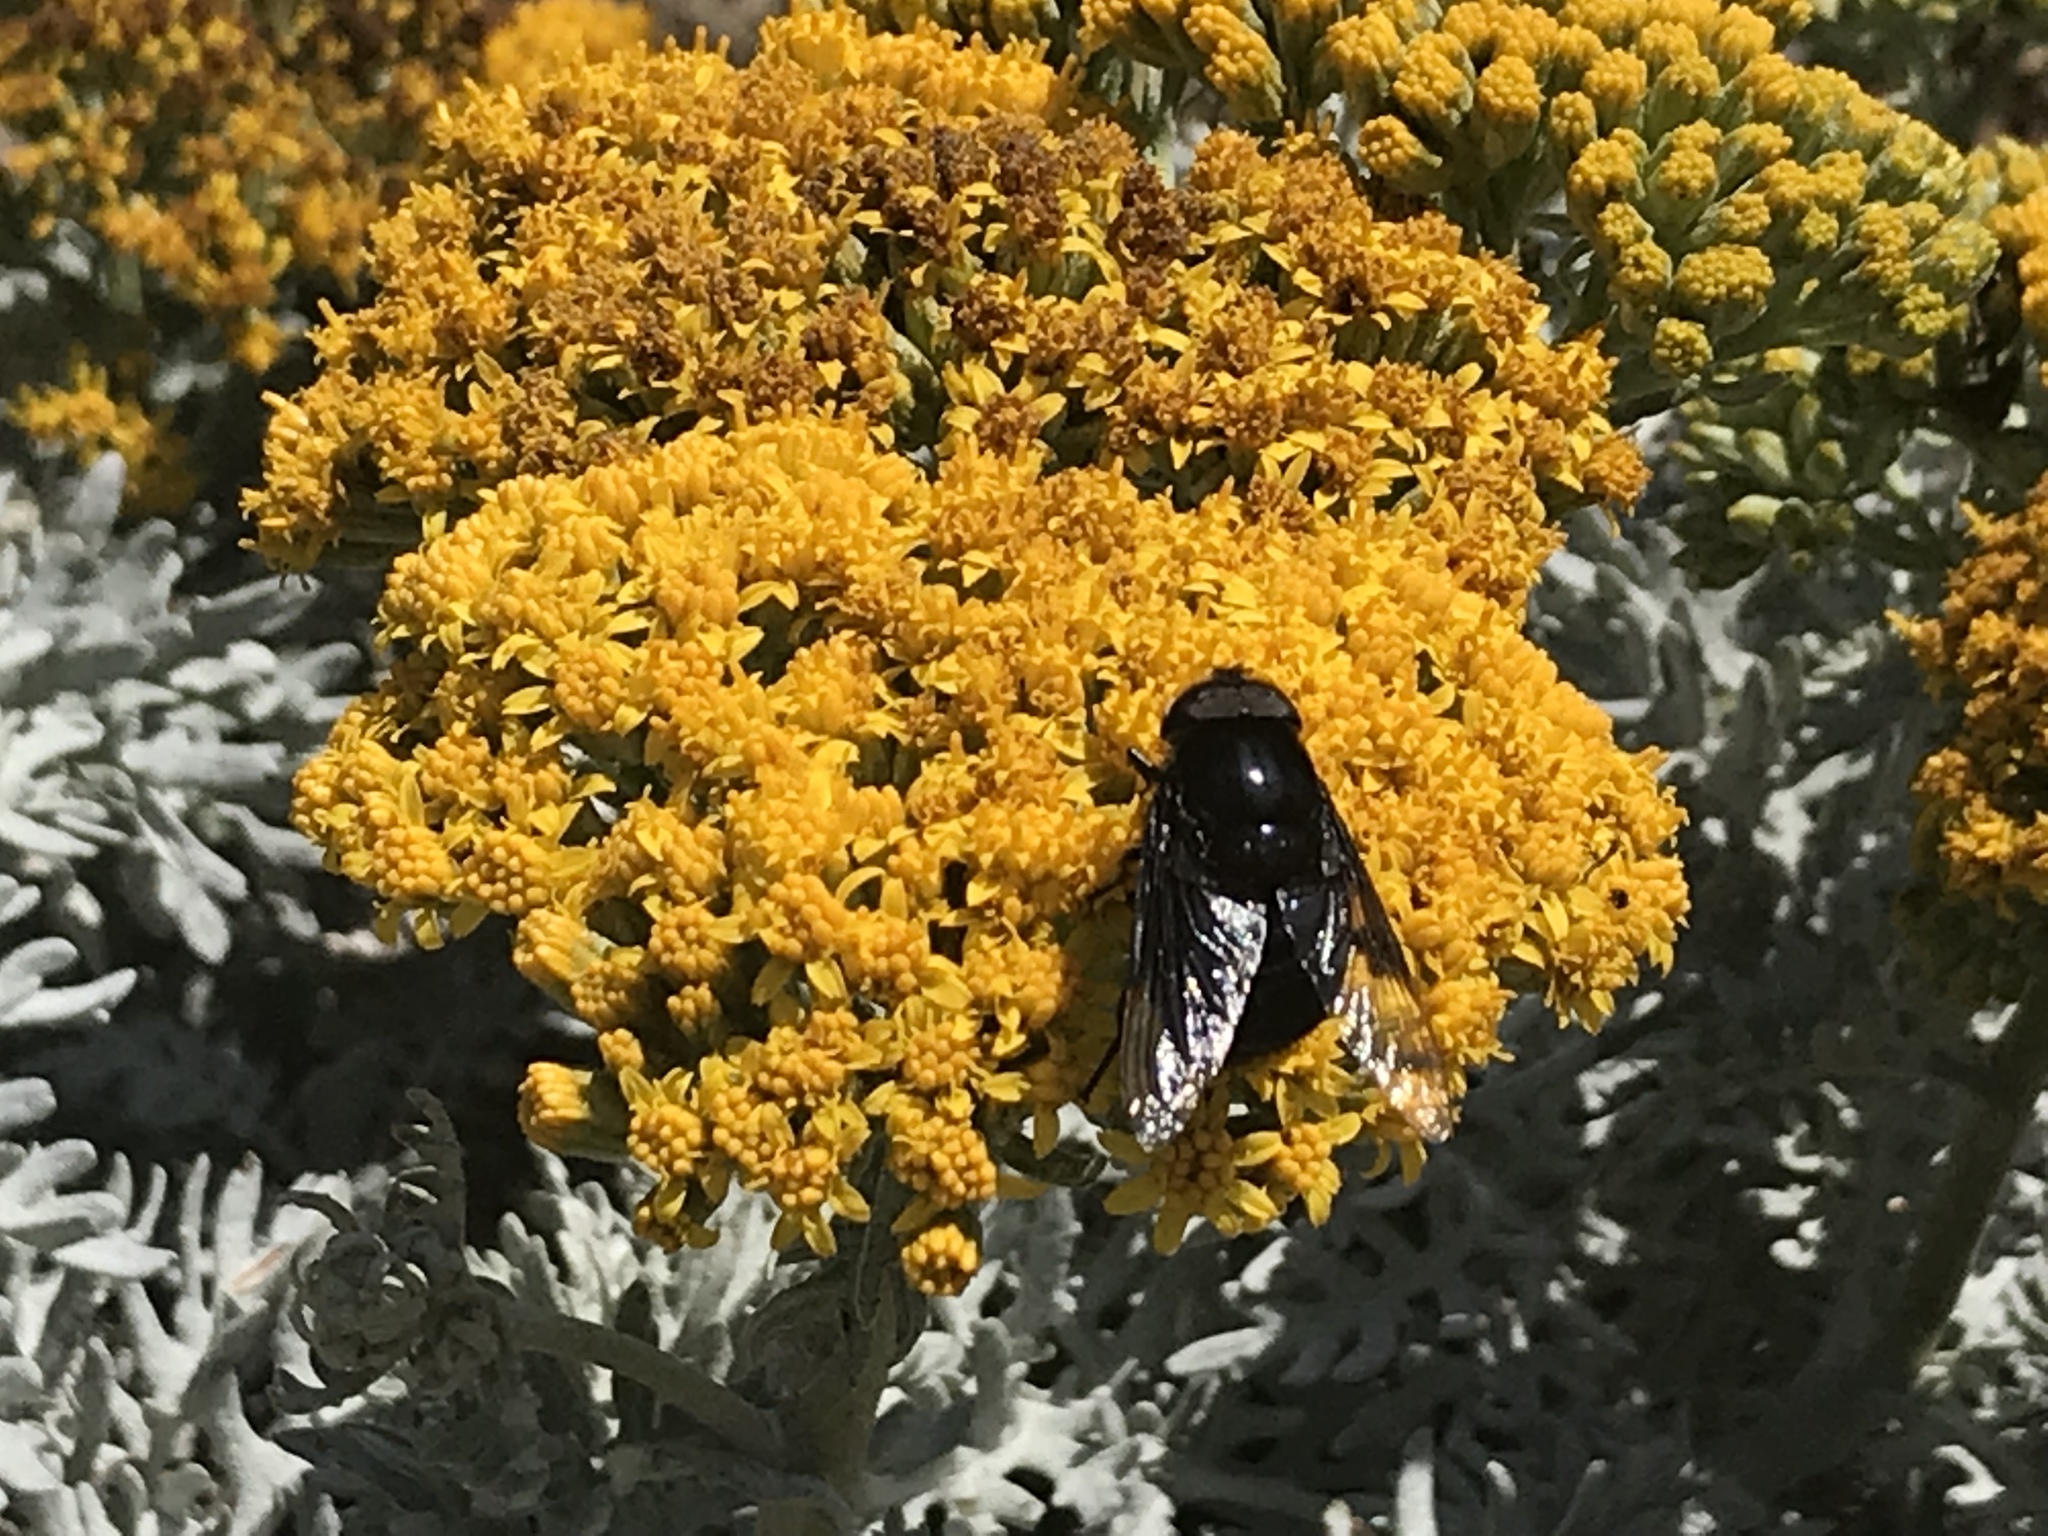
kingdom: Animalia
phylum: Arthropoda
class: Insecta
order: Diptera
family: Syrphidae
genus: Copestylum
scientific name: Copestylum mexicanum
